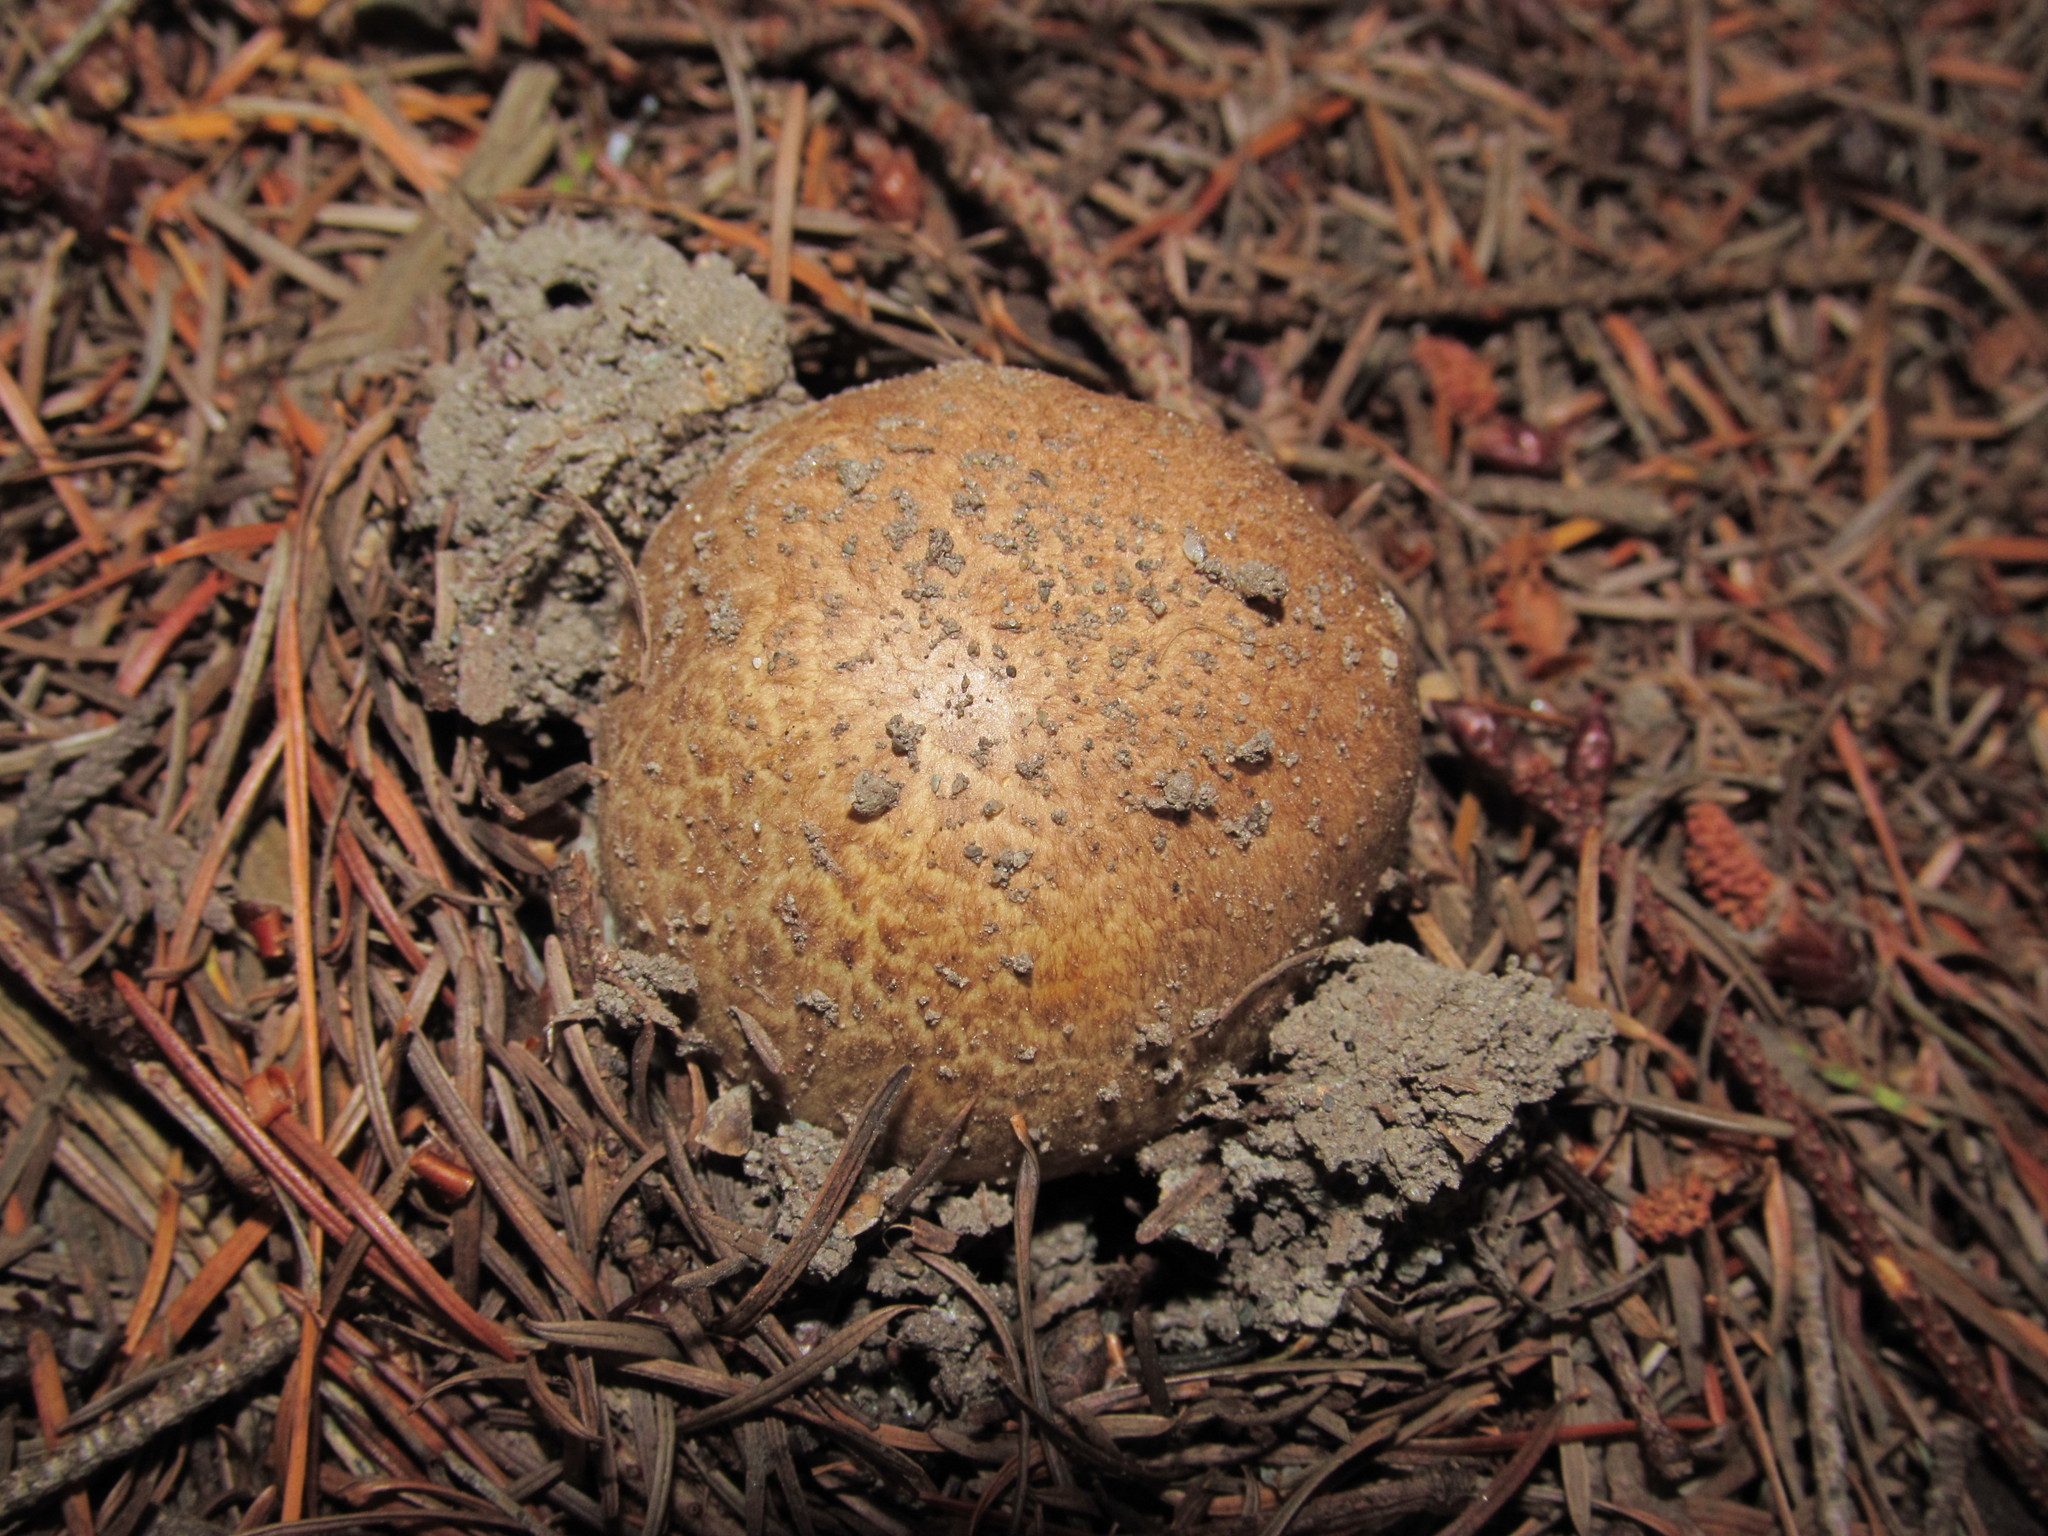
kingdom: Fungi
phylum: Basidiomycota
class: Agaricomycetes
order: Agaricales
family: Agaricaceae
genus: Agaricus
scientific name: Agaricus augustus
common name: Prince
